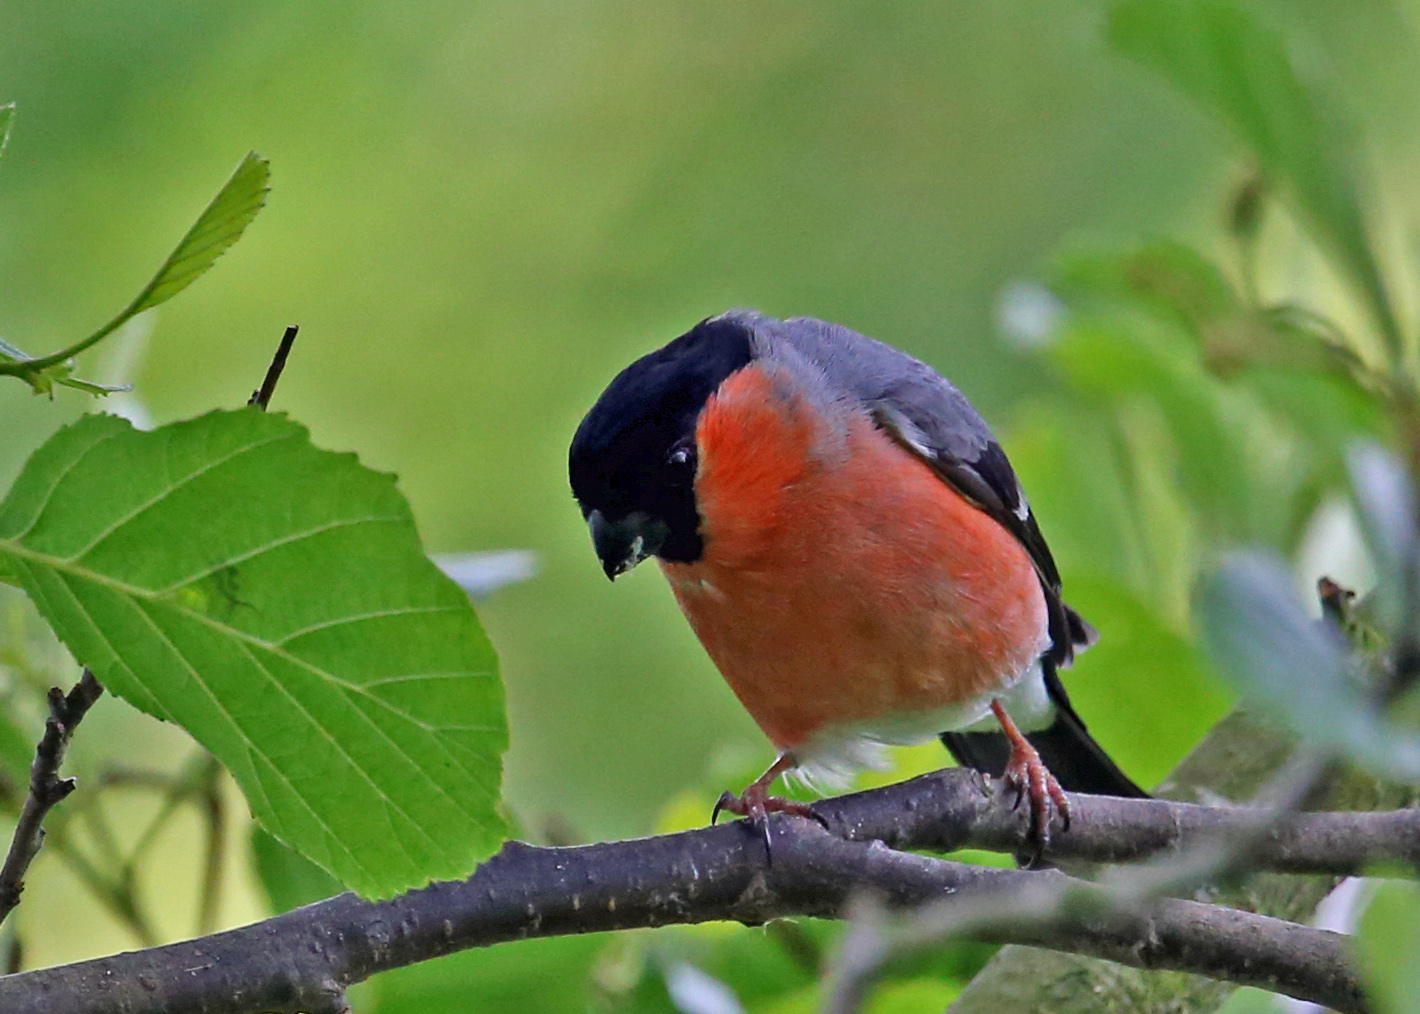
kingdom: Animalia
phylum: Chordata
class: Aves
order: Passeriformes
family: Fringillidae
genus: Pyrrhula
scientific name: Pyrrhula pyrrhula
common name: Eurasian bullfinch
